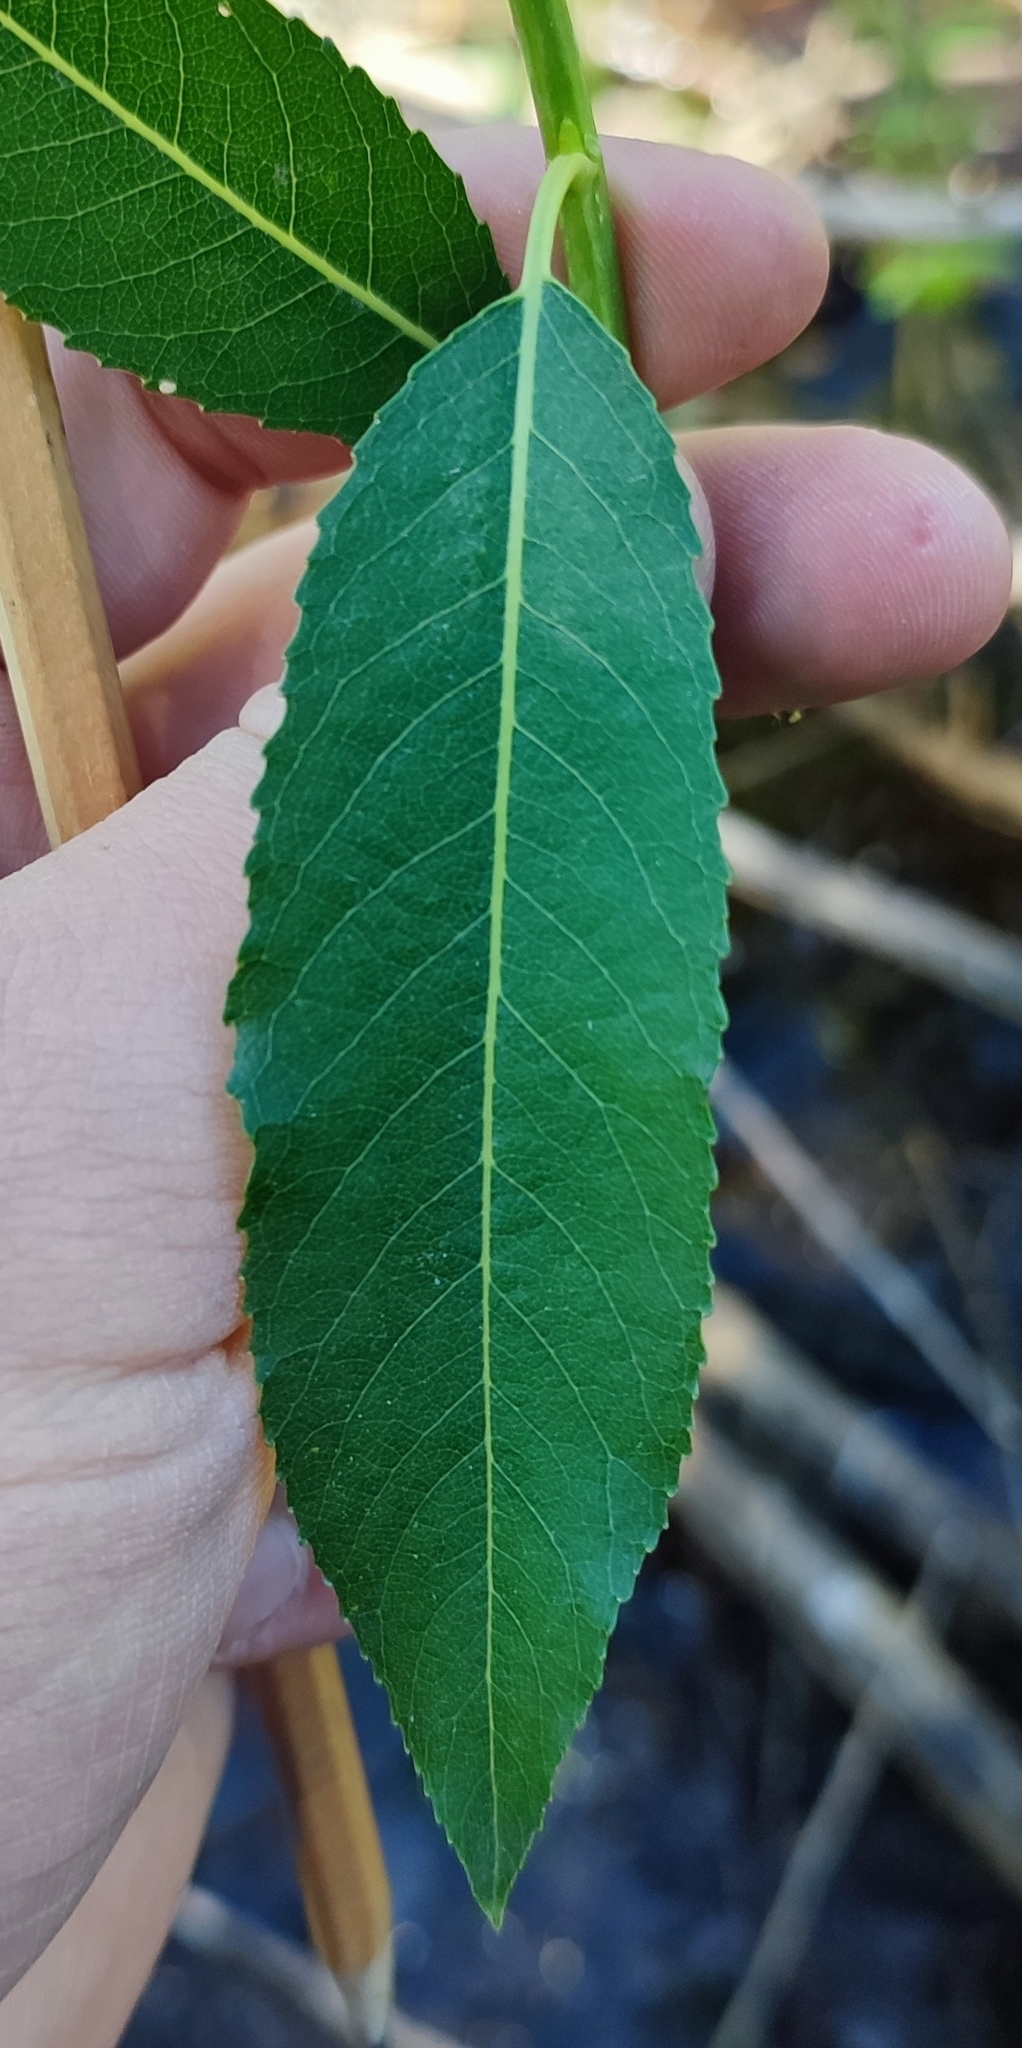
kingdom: Plantae
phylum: Tracheophyta
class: Magnoliopsida
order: Malpighiales
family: Salicaceae
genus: Salix
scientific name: Salix triandra
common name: Almond willow
